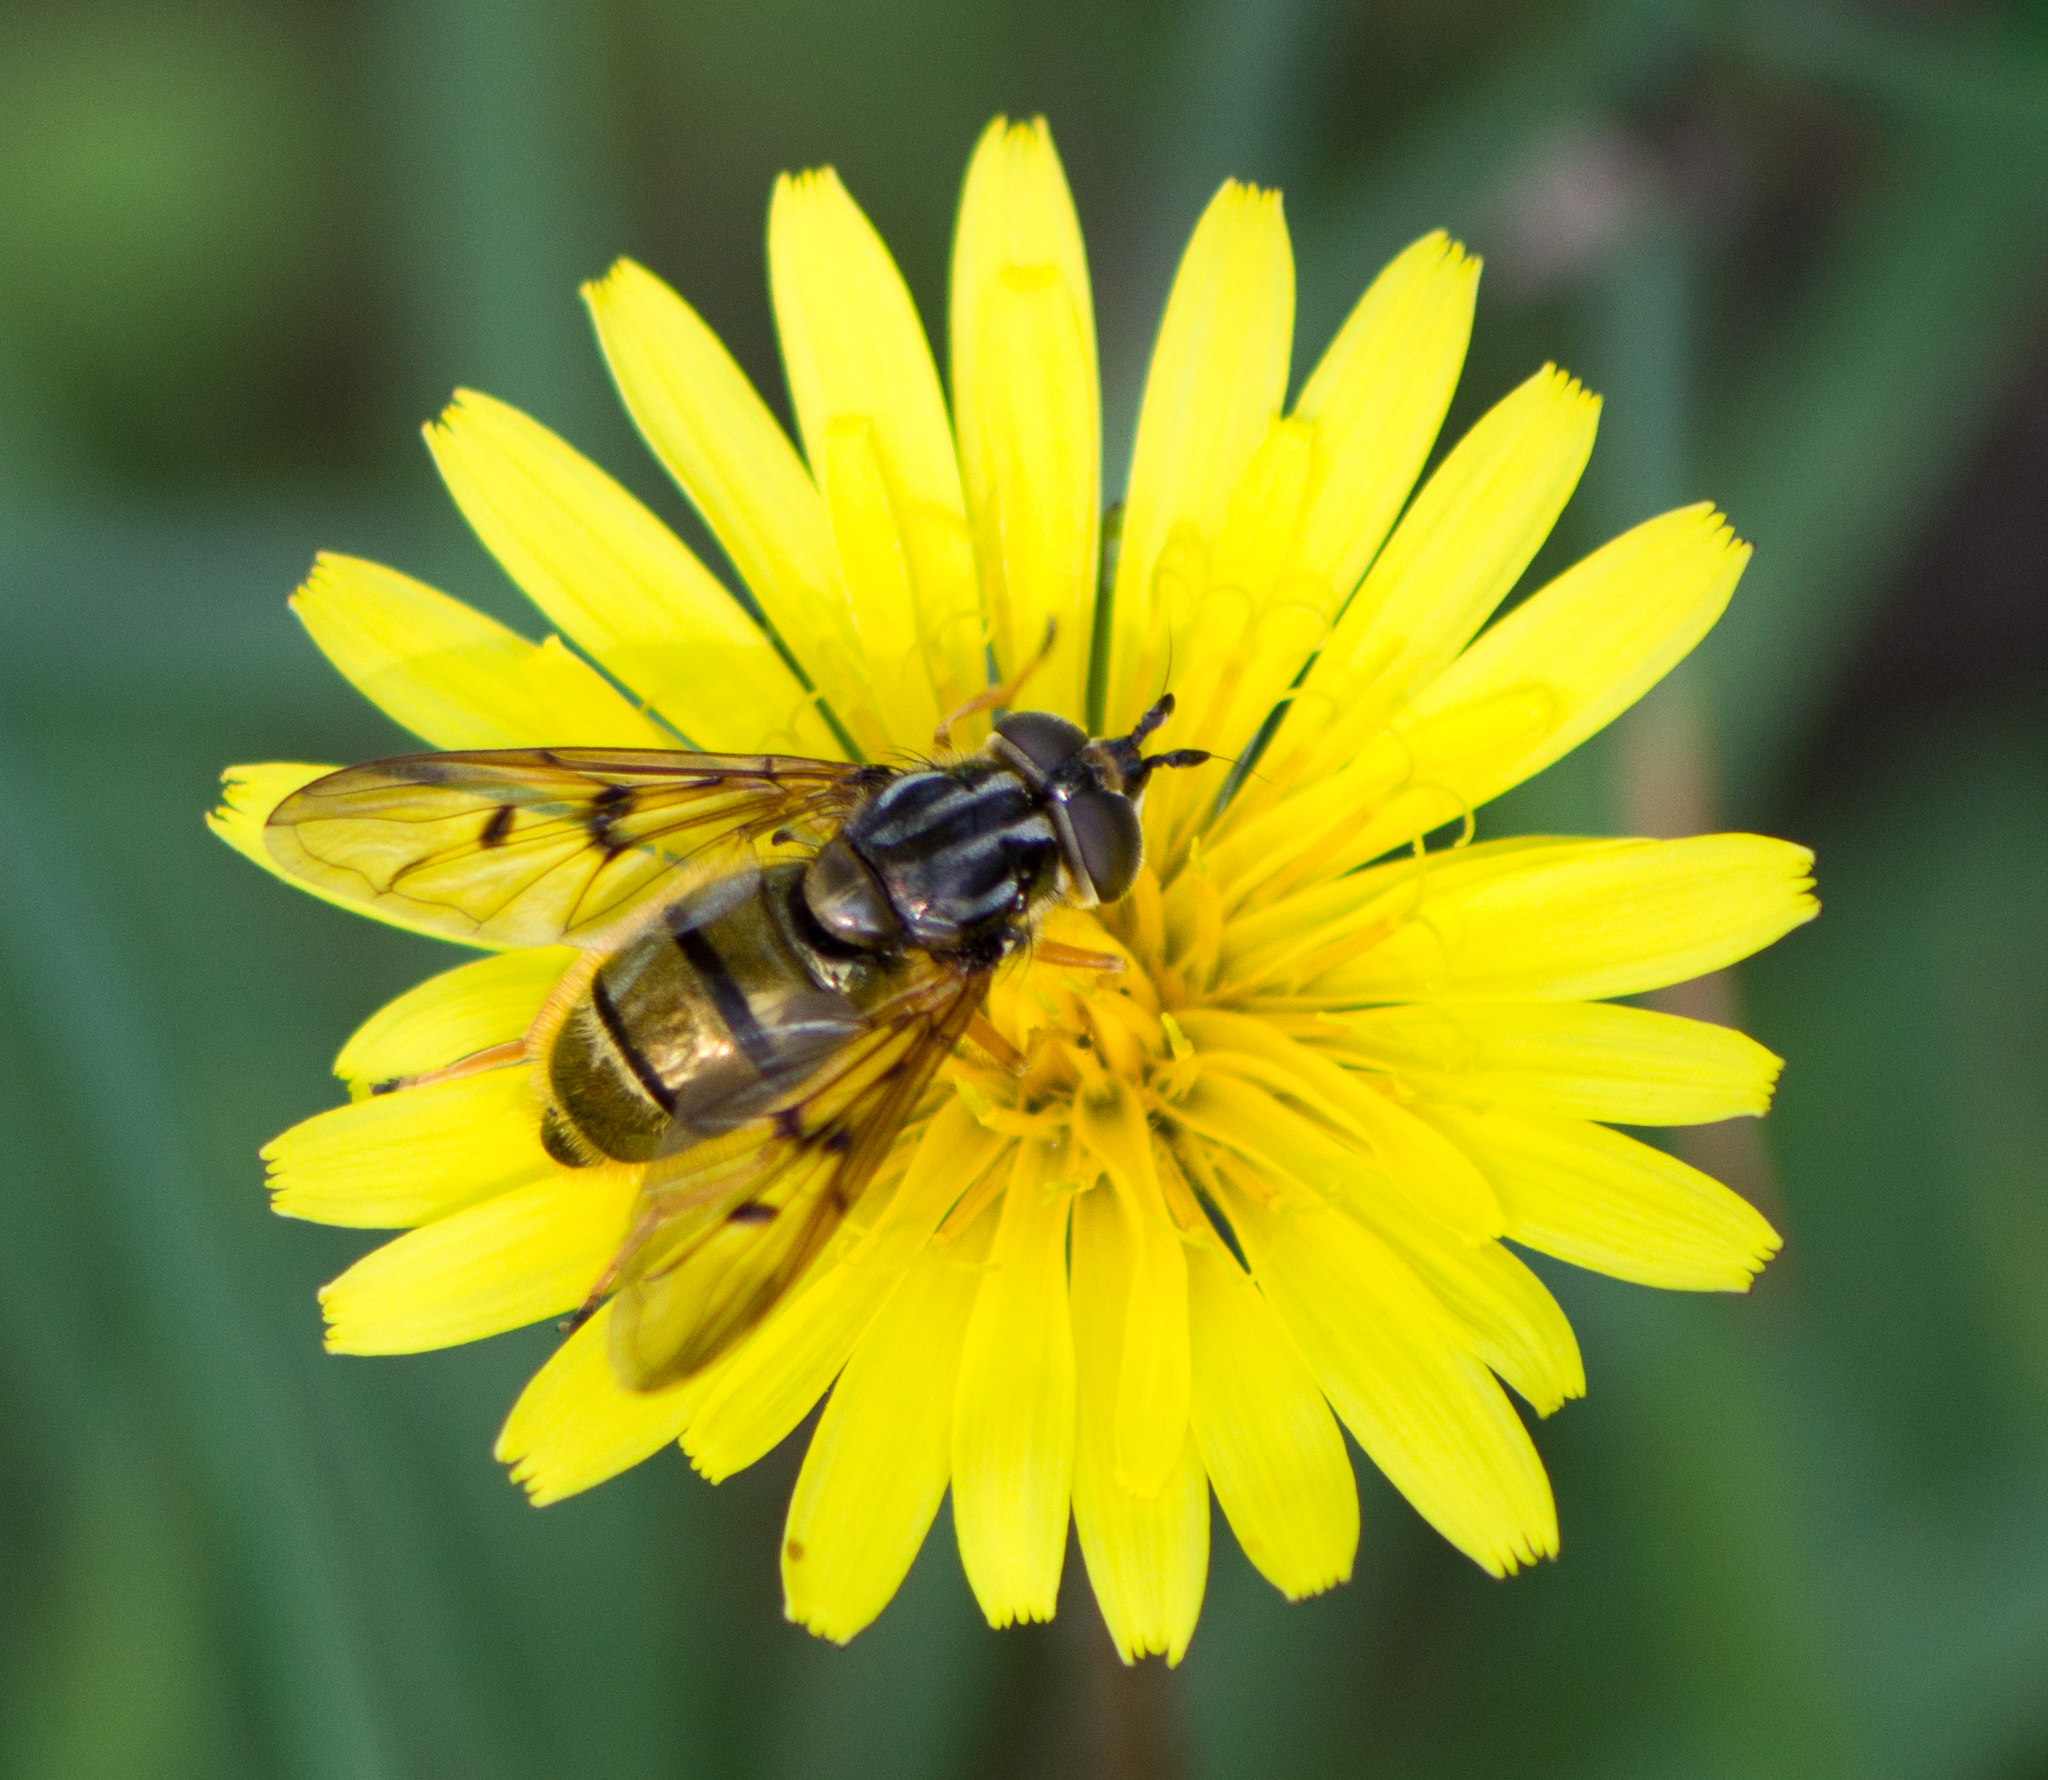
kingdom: Animalia
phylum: Arthropoda
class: Insecta
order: Diptera
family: Syrphidae
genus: Ferdinandea
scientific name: Ferdinandea aurea
